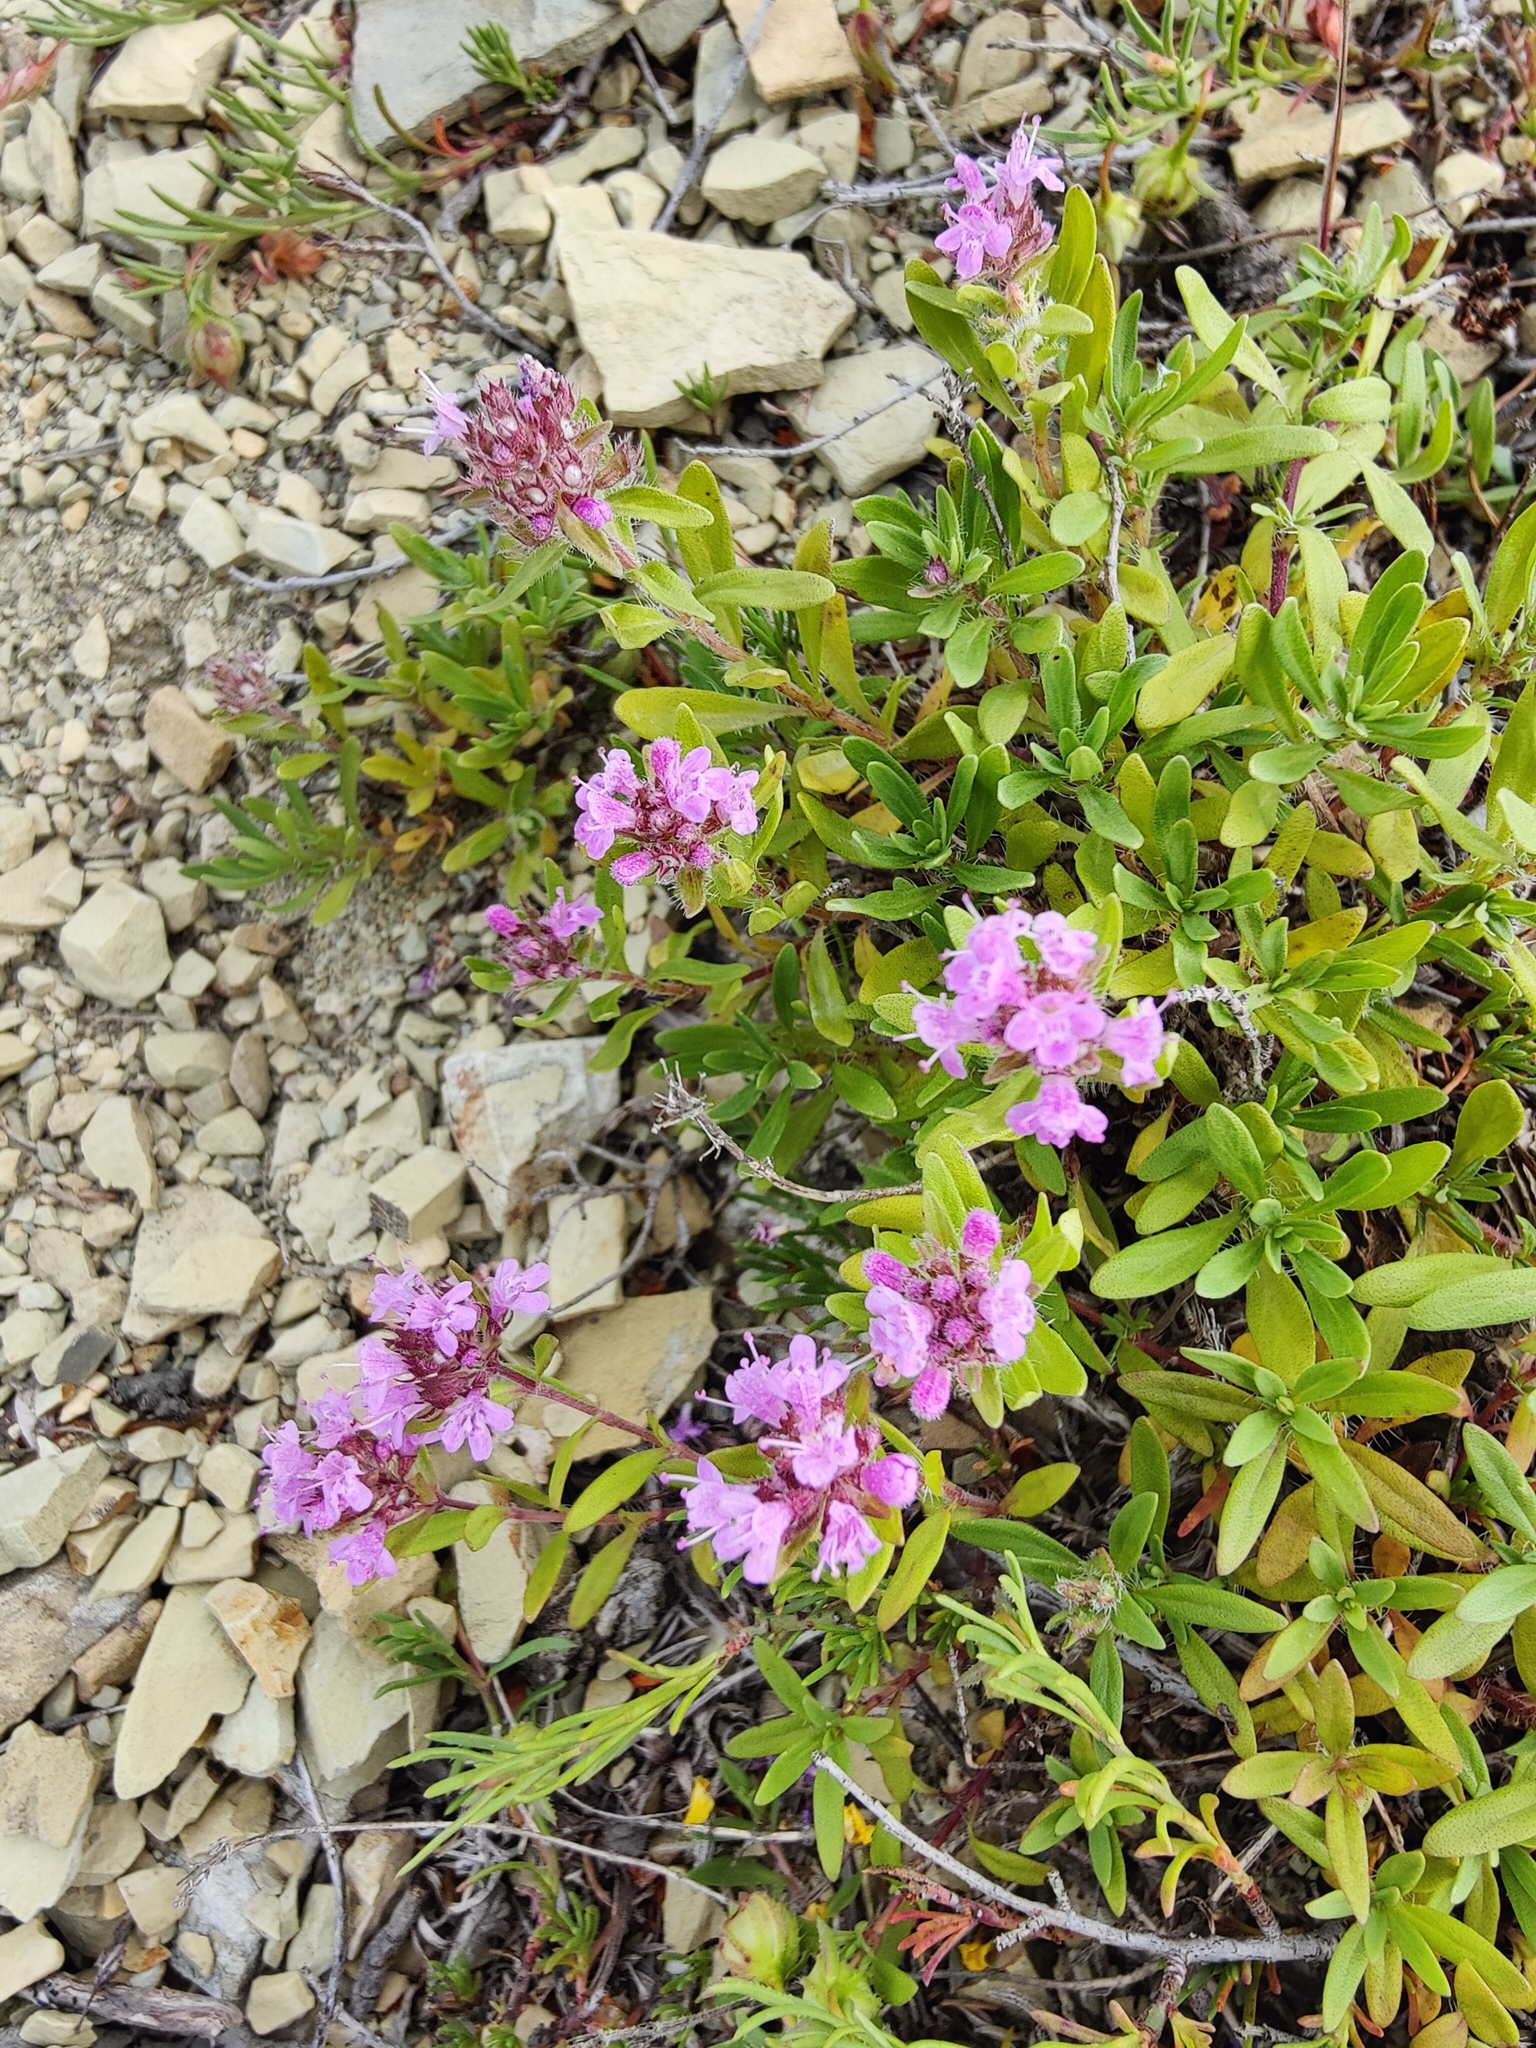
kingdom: Plantae
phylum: Tracheophyta
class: Magnoliopsida
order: Lamiales
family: Lamiaceae
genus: Thymus
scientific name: Thymus dimorphus
